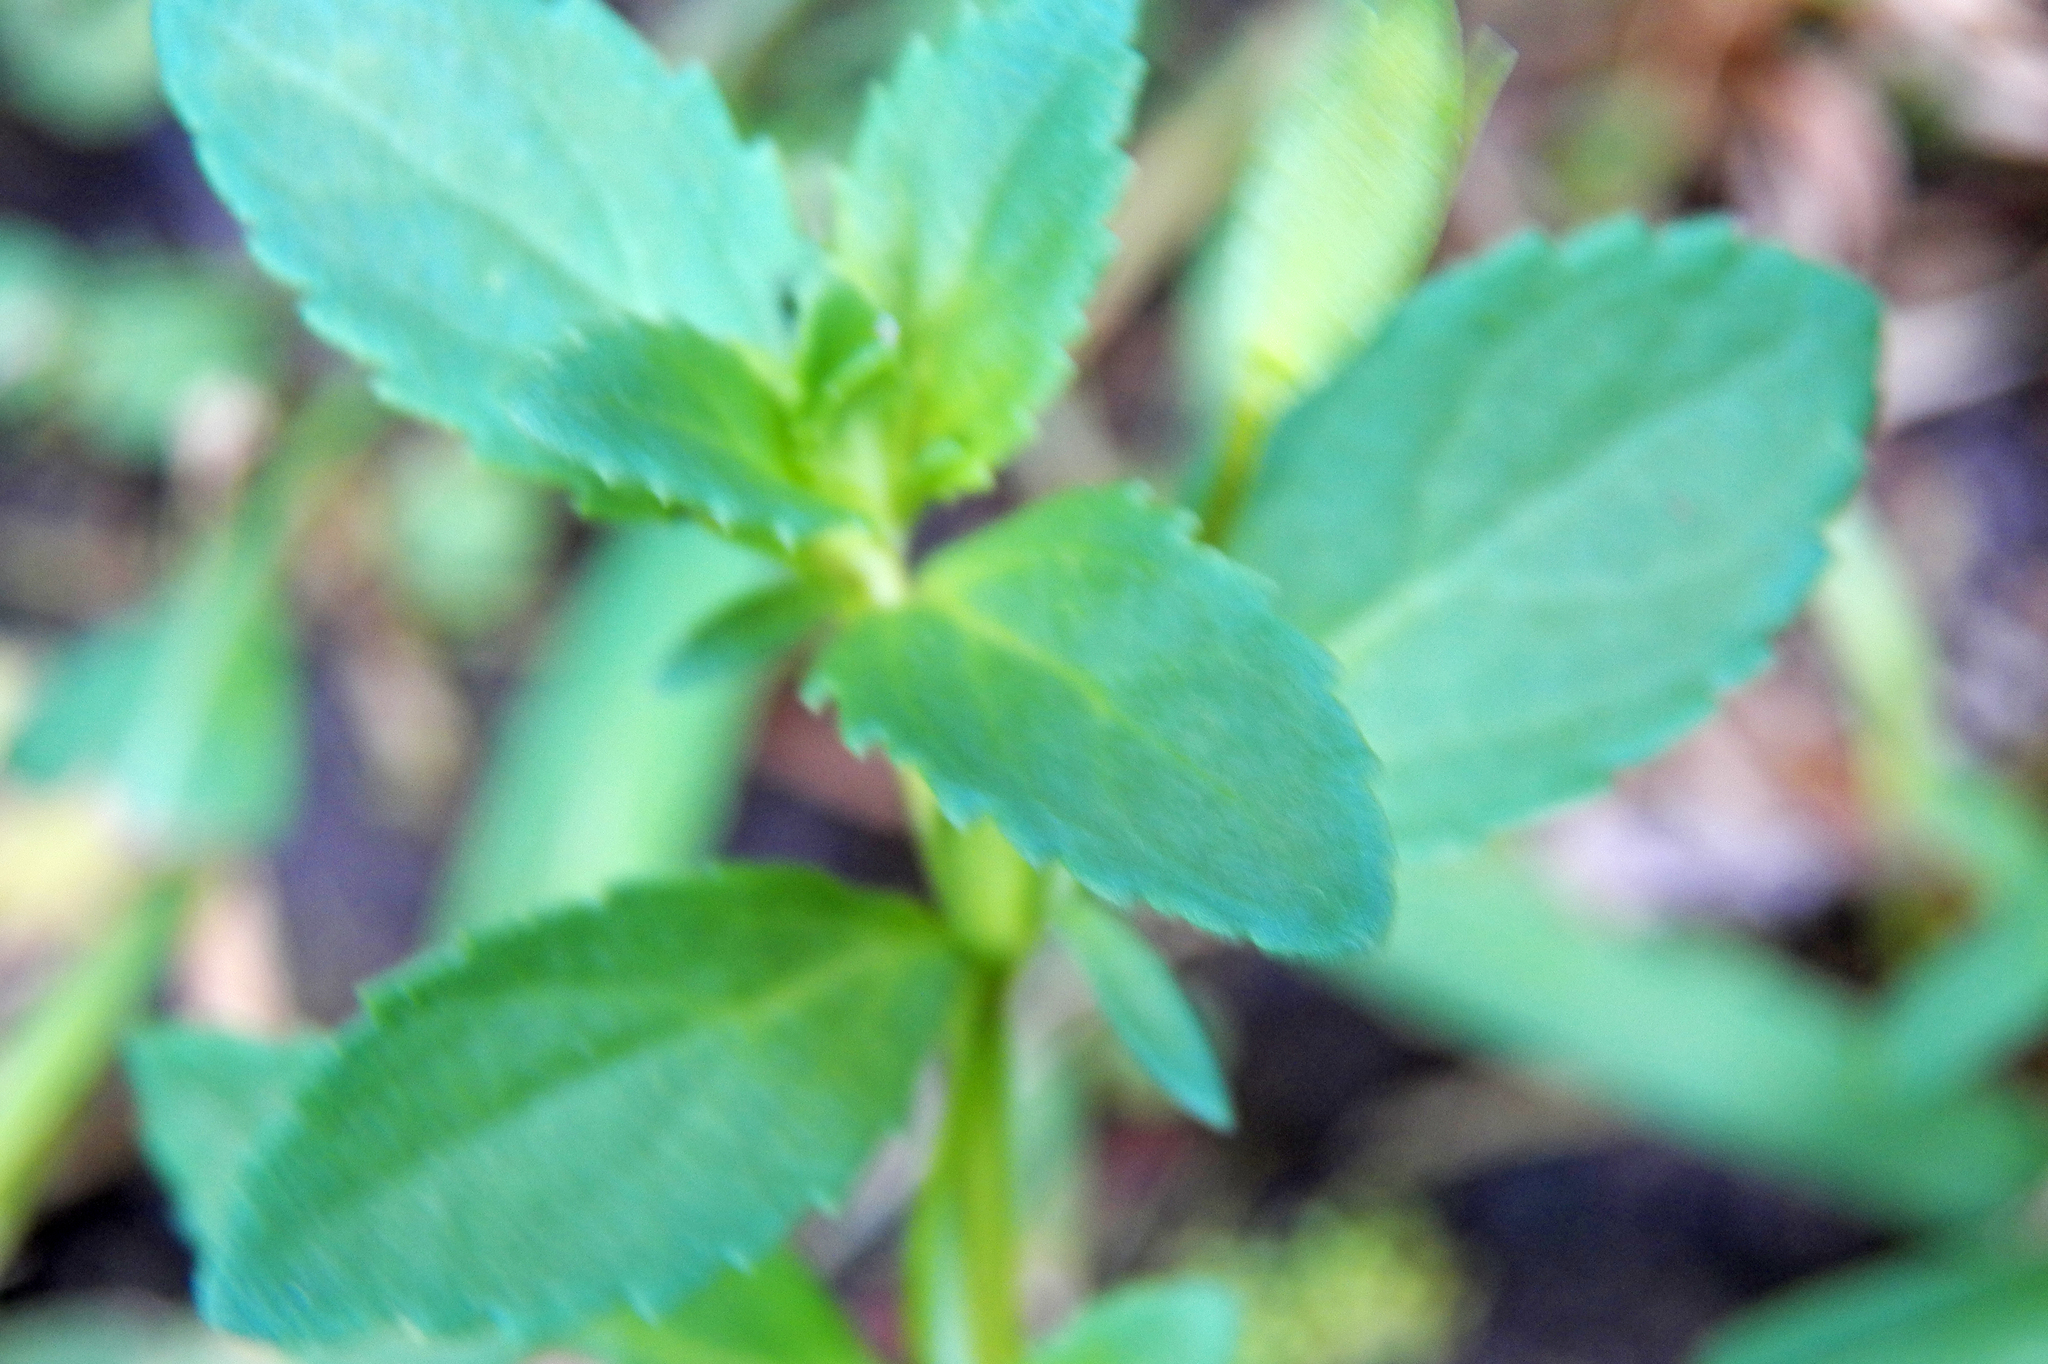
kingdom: Plantae
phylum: Tracheophyta
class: Magnoliopsida
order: Lamiales
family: Plantaginaceae
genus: Mecardonia
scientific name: Mecardonia procumbens
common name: Baby jump-up
